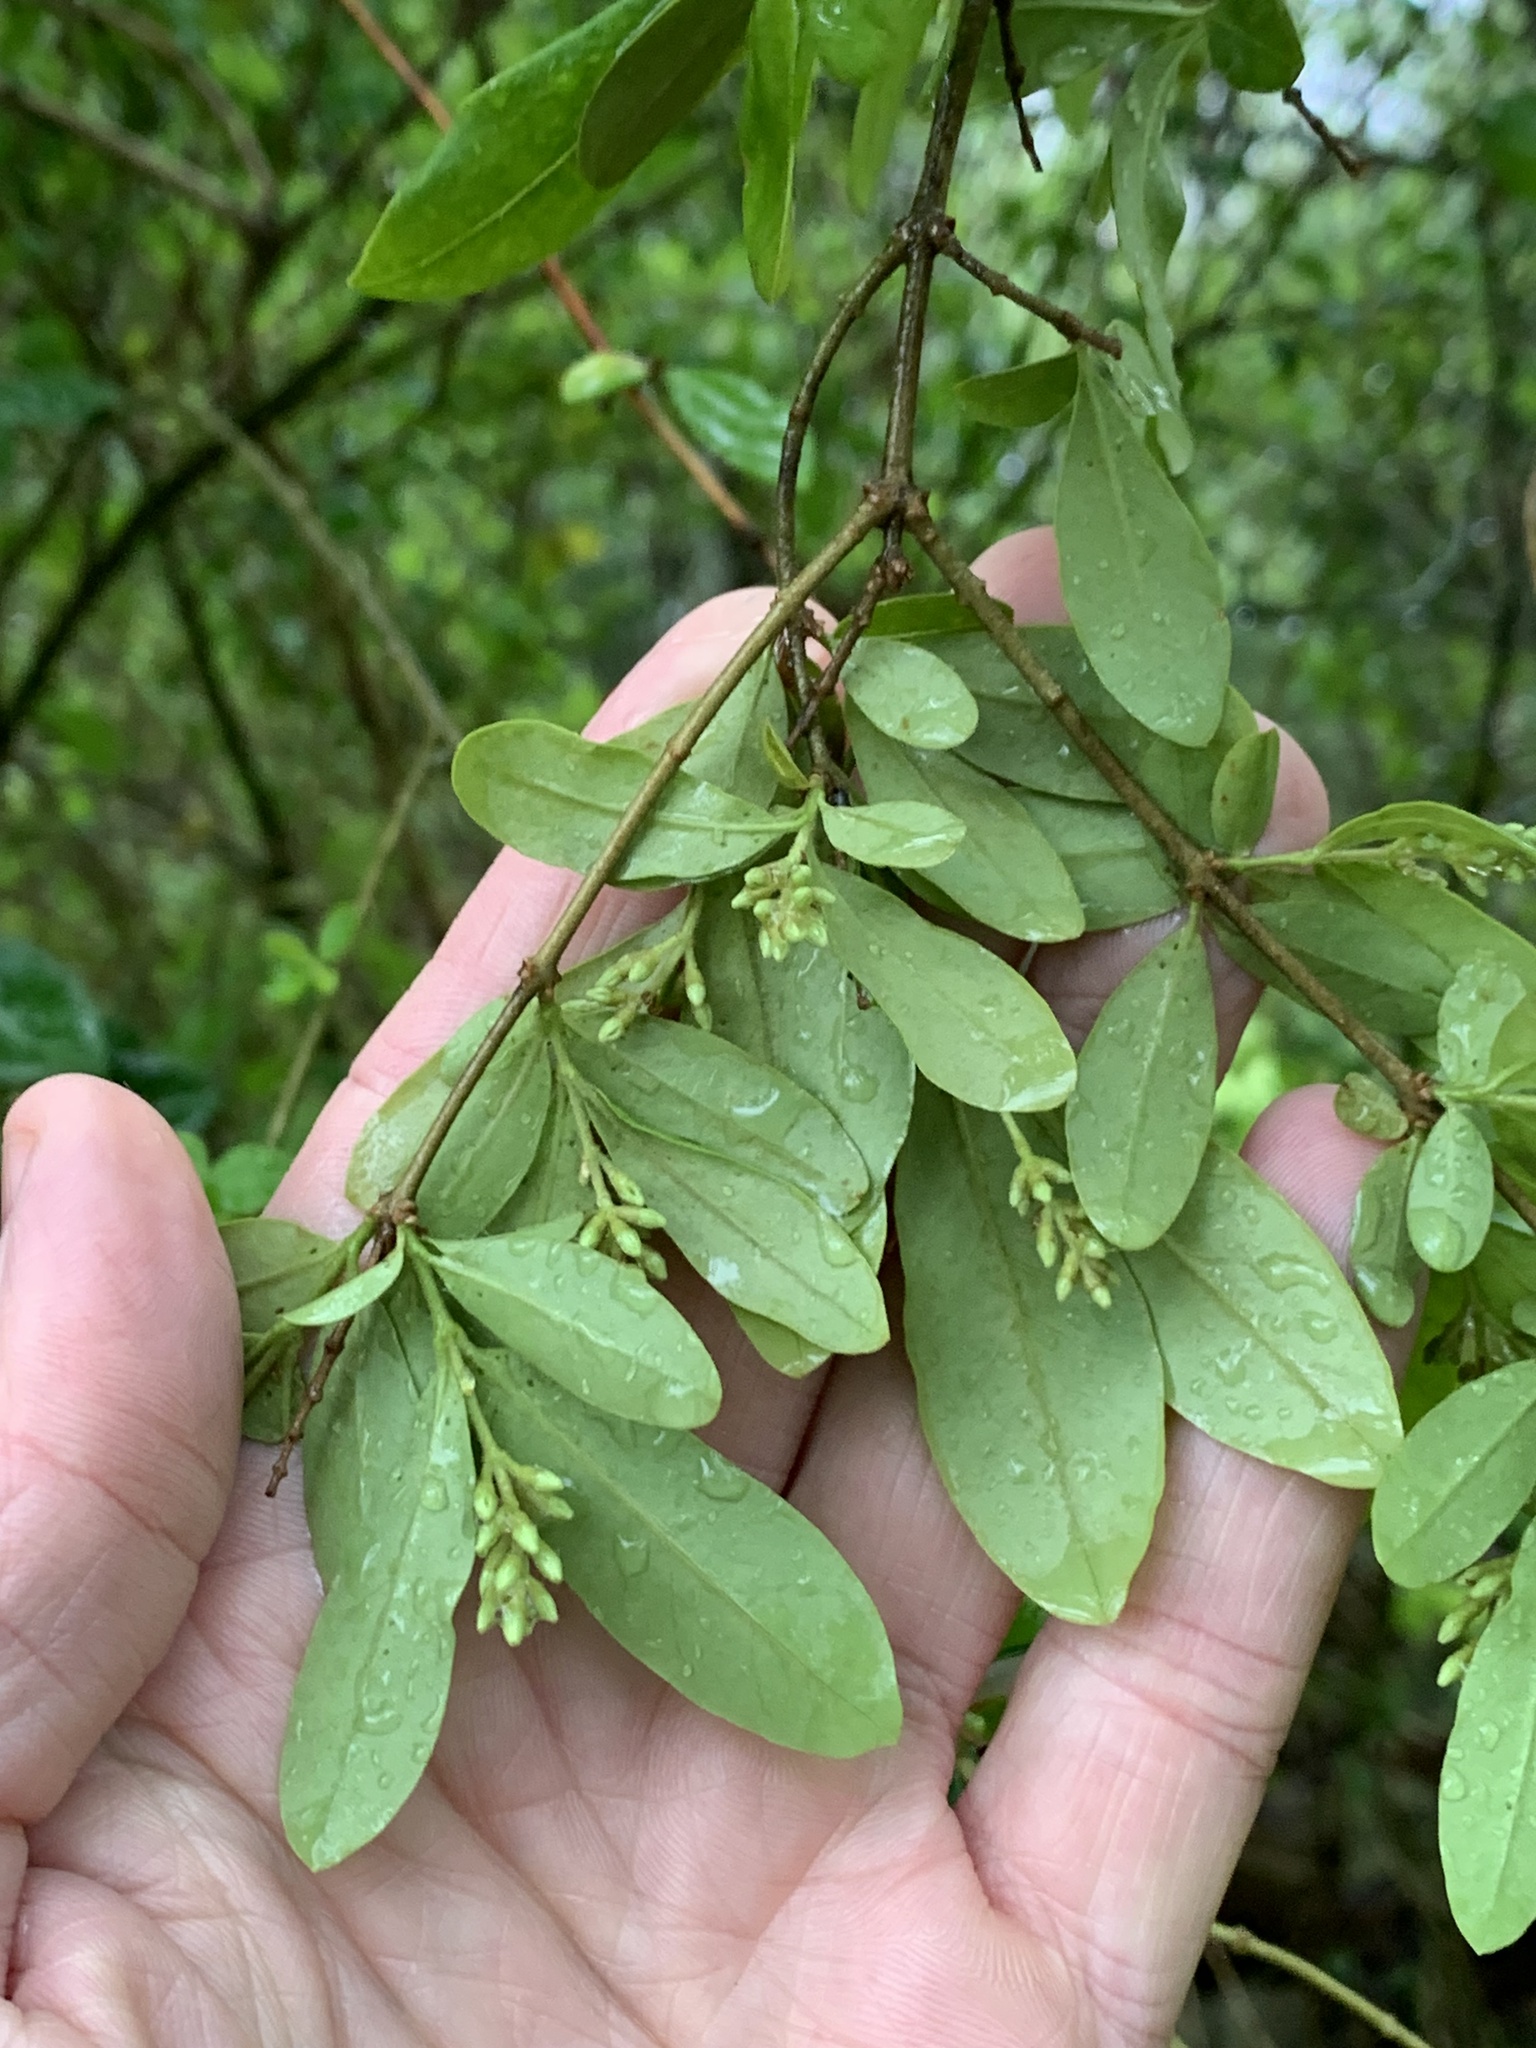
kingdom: Plantae
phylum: Tracheophyta
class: Magnoliopsida
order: Lamiales
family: Oleaceae
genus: Ligustrum
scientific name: Ligustrum obtusifolium
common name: Border privet
